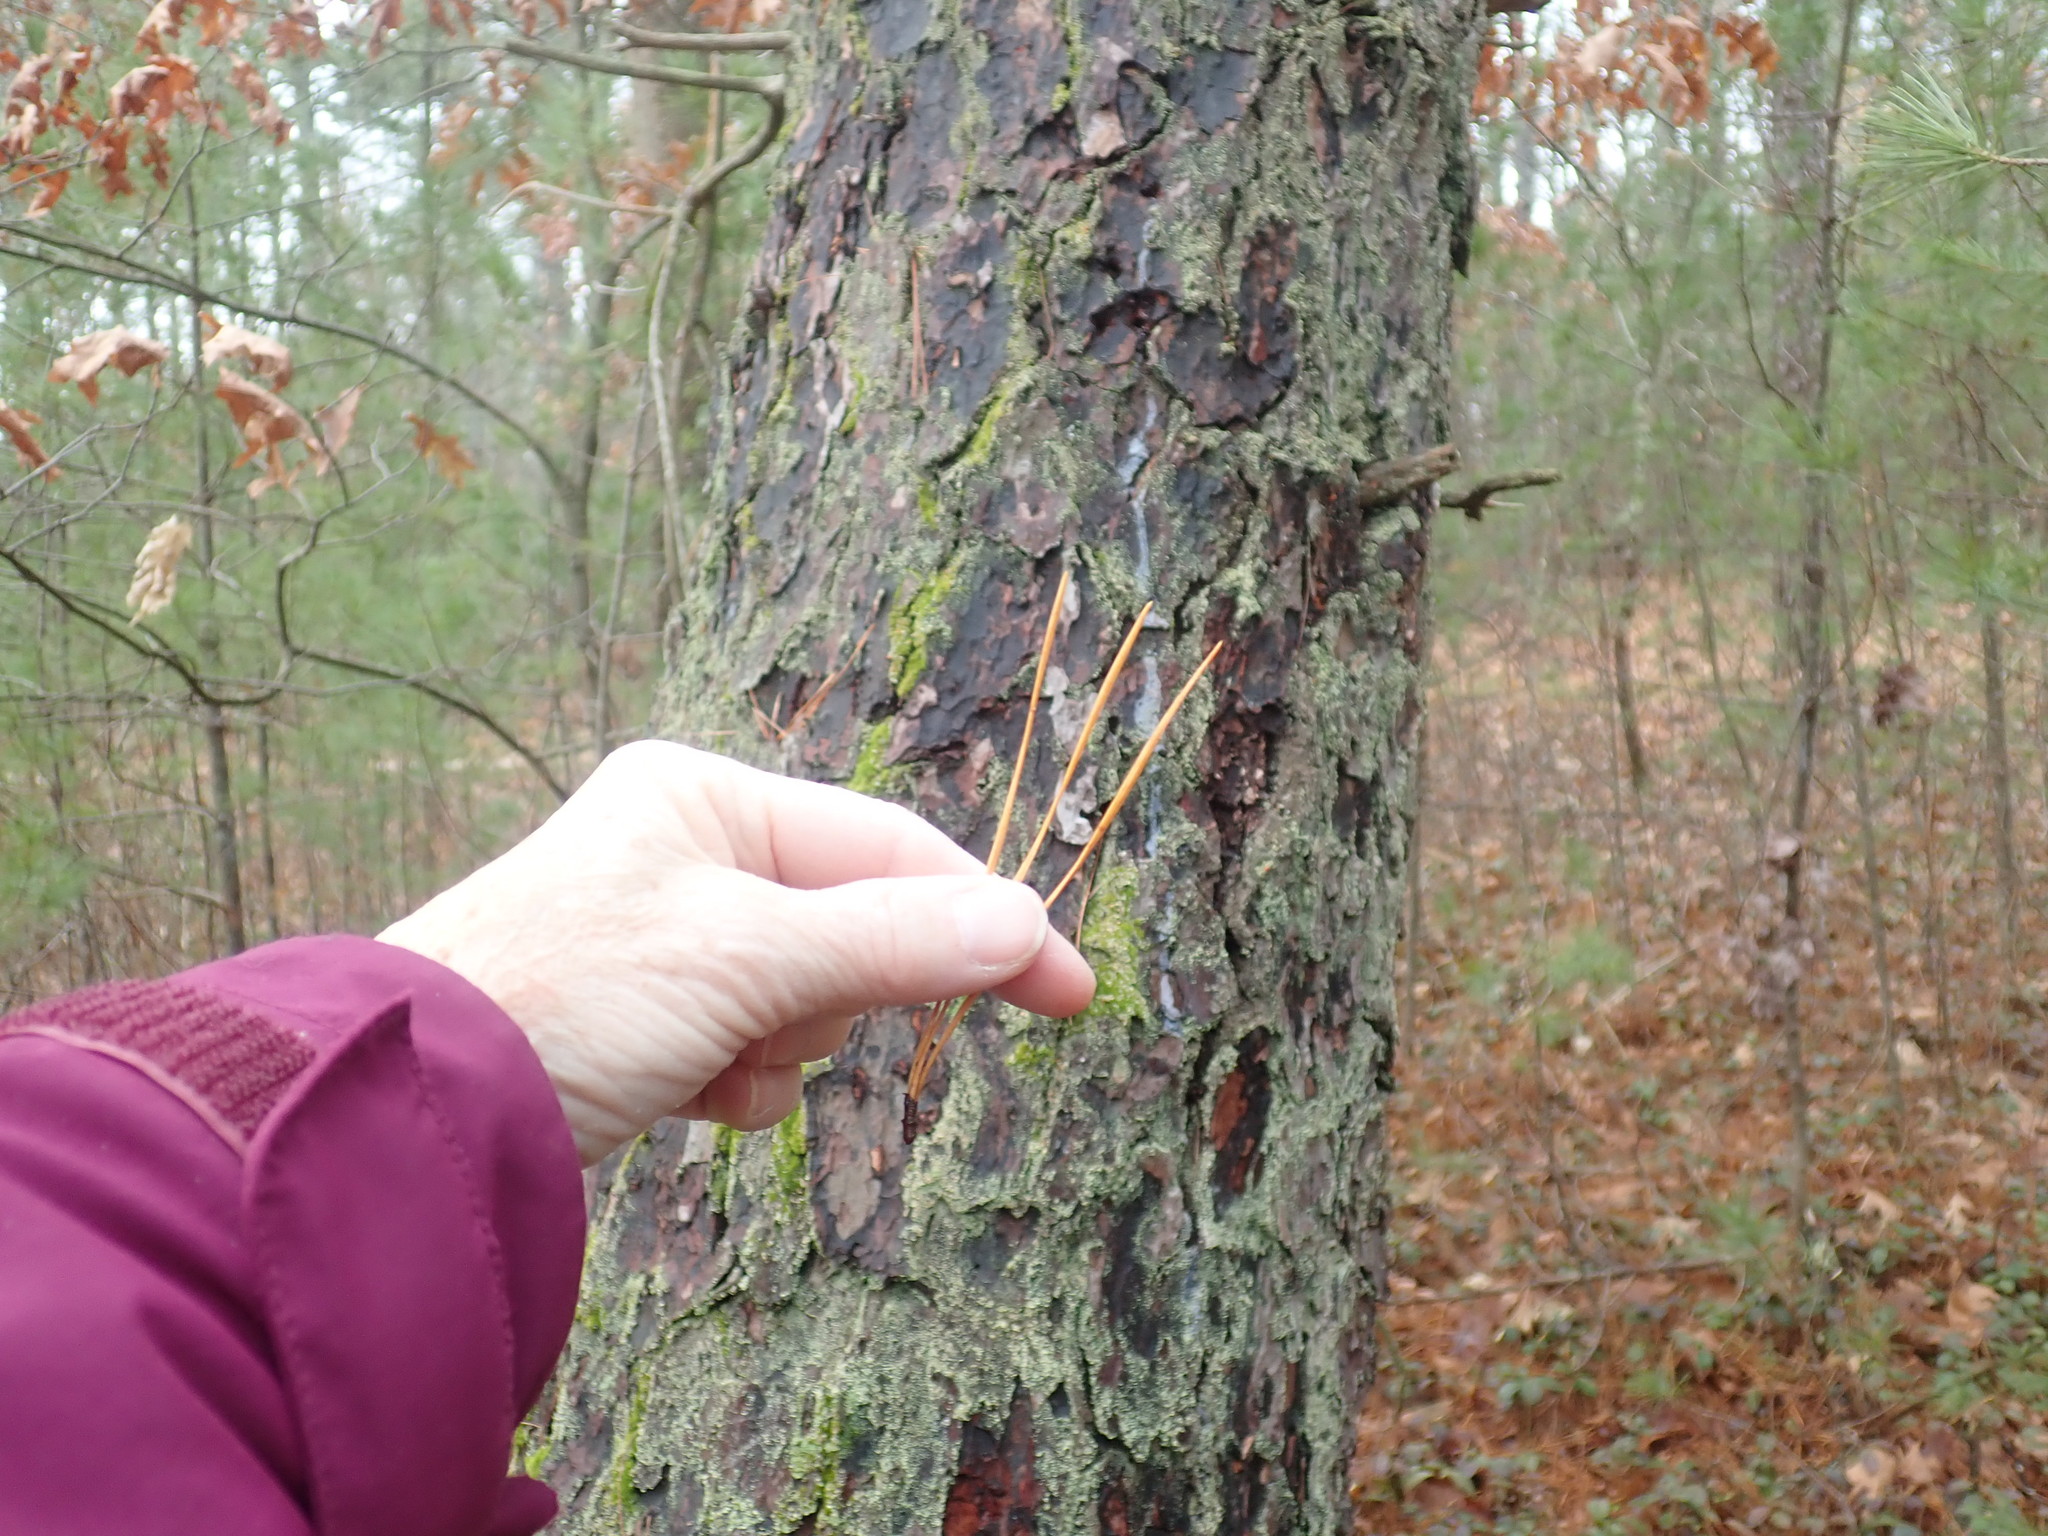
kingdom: Plantae
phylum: Tracheophyta
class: Pinopsida
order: Pinales
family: Pinaceae
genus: Pinus
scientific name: Pinus rigida
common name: Pitch pine
